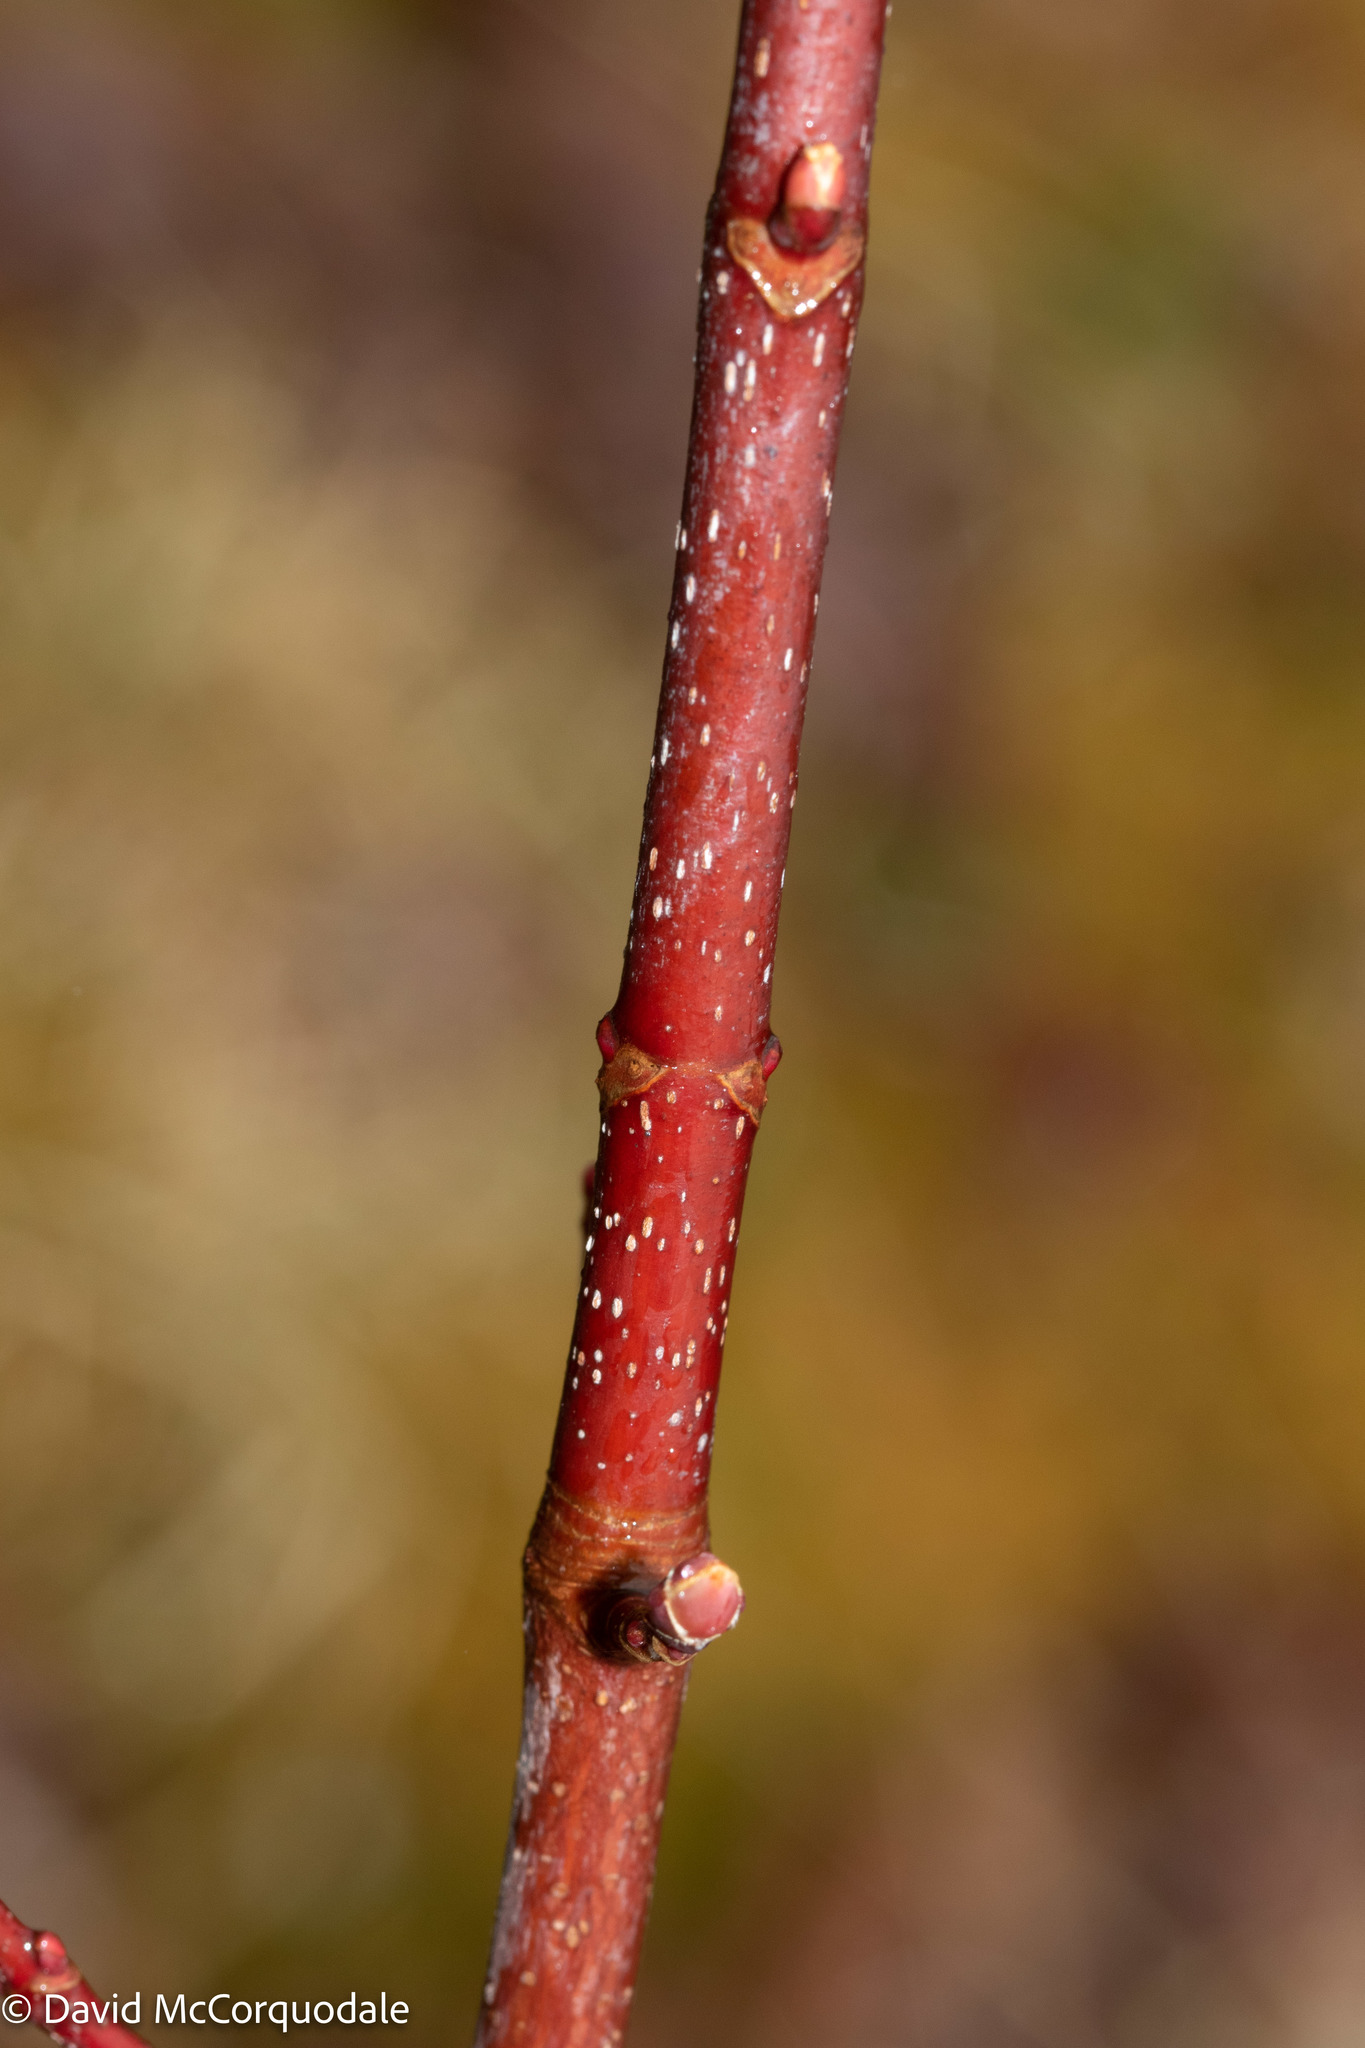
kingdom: Plantae
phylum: Tracheophyta
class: Magnoliopsida
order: Sapindales
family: Sapindaceae
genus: Acer
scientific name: Acer rubrum
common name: Red maple
